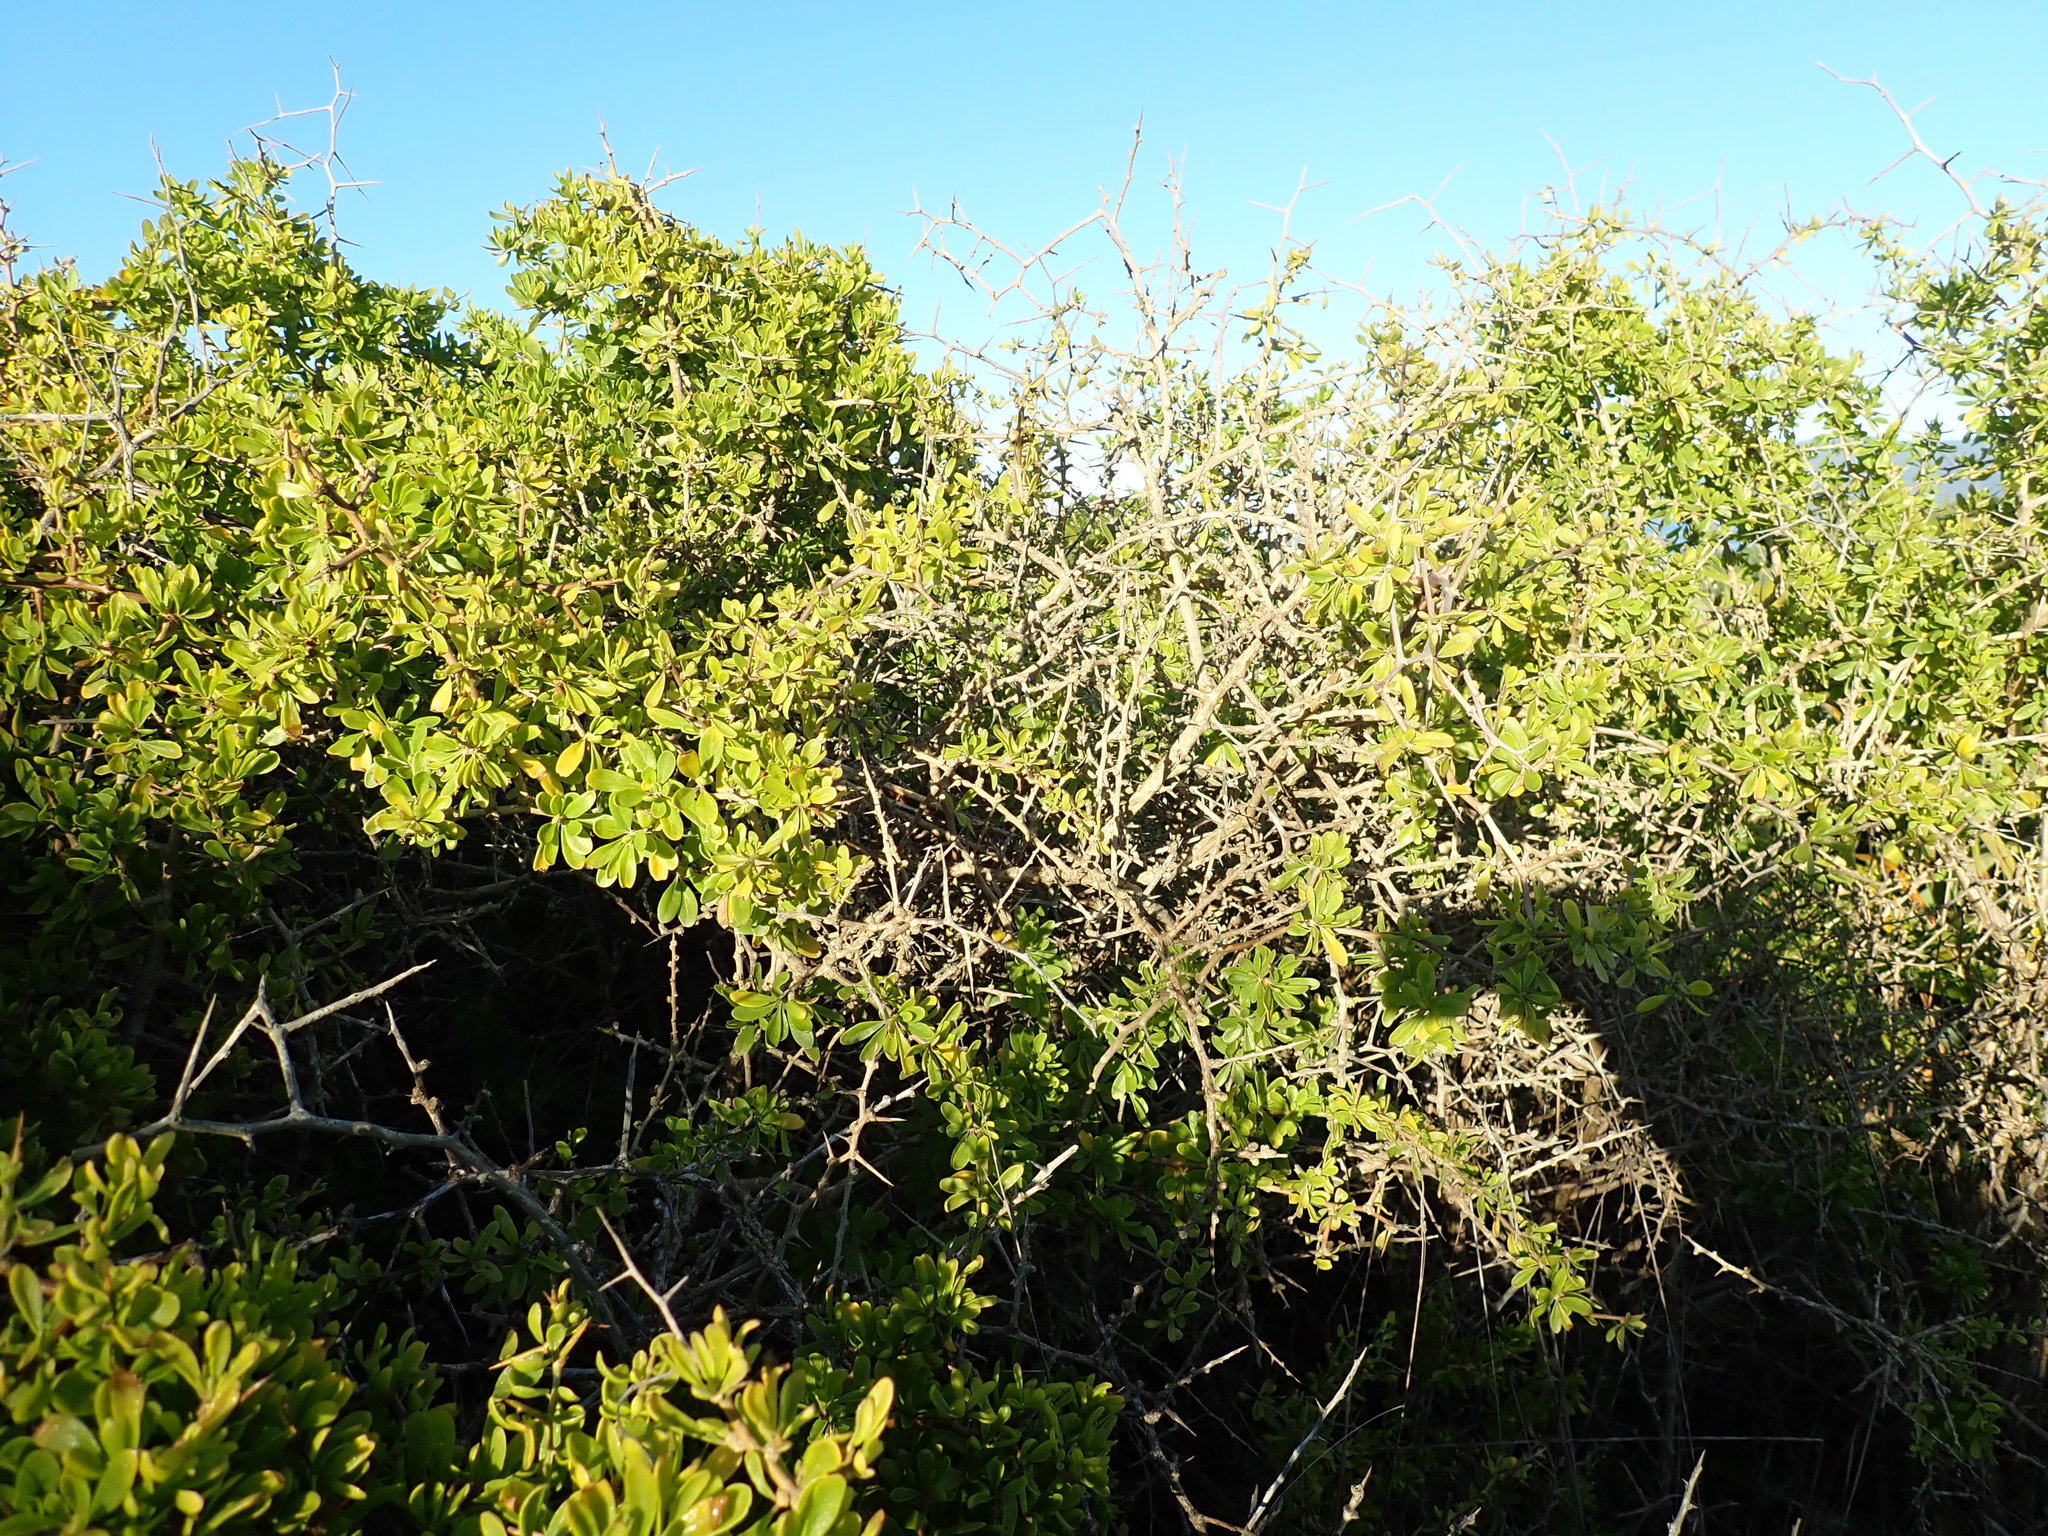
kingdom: Plantae
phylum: Tracheophyta
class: Magnoliopsida
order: Solanales
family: Solanaceae
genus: Lycium
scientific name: Lycium ferocissimum
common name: African boxthorn
